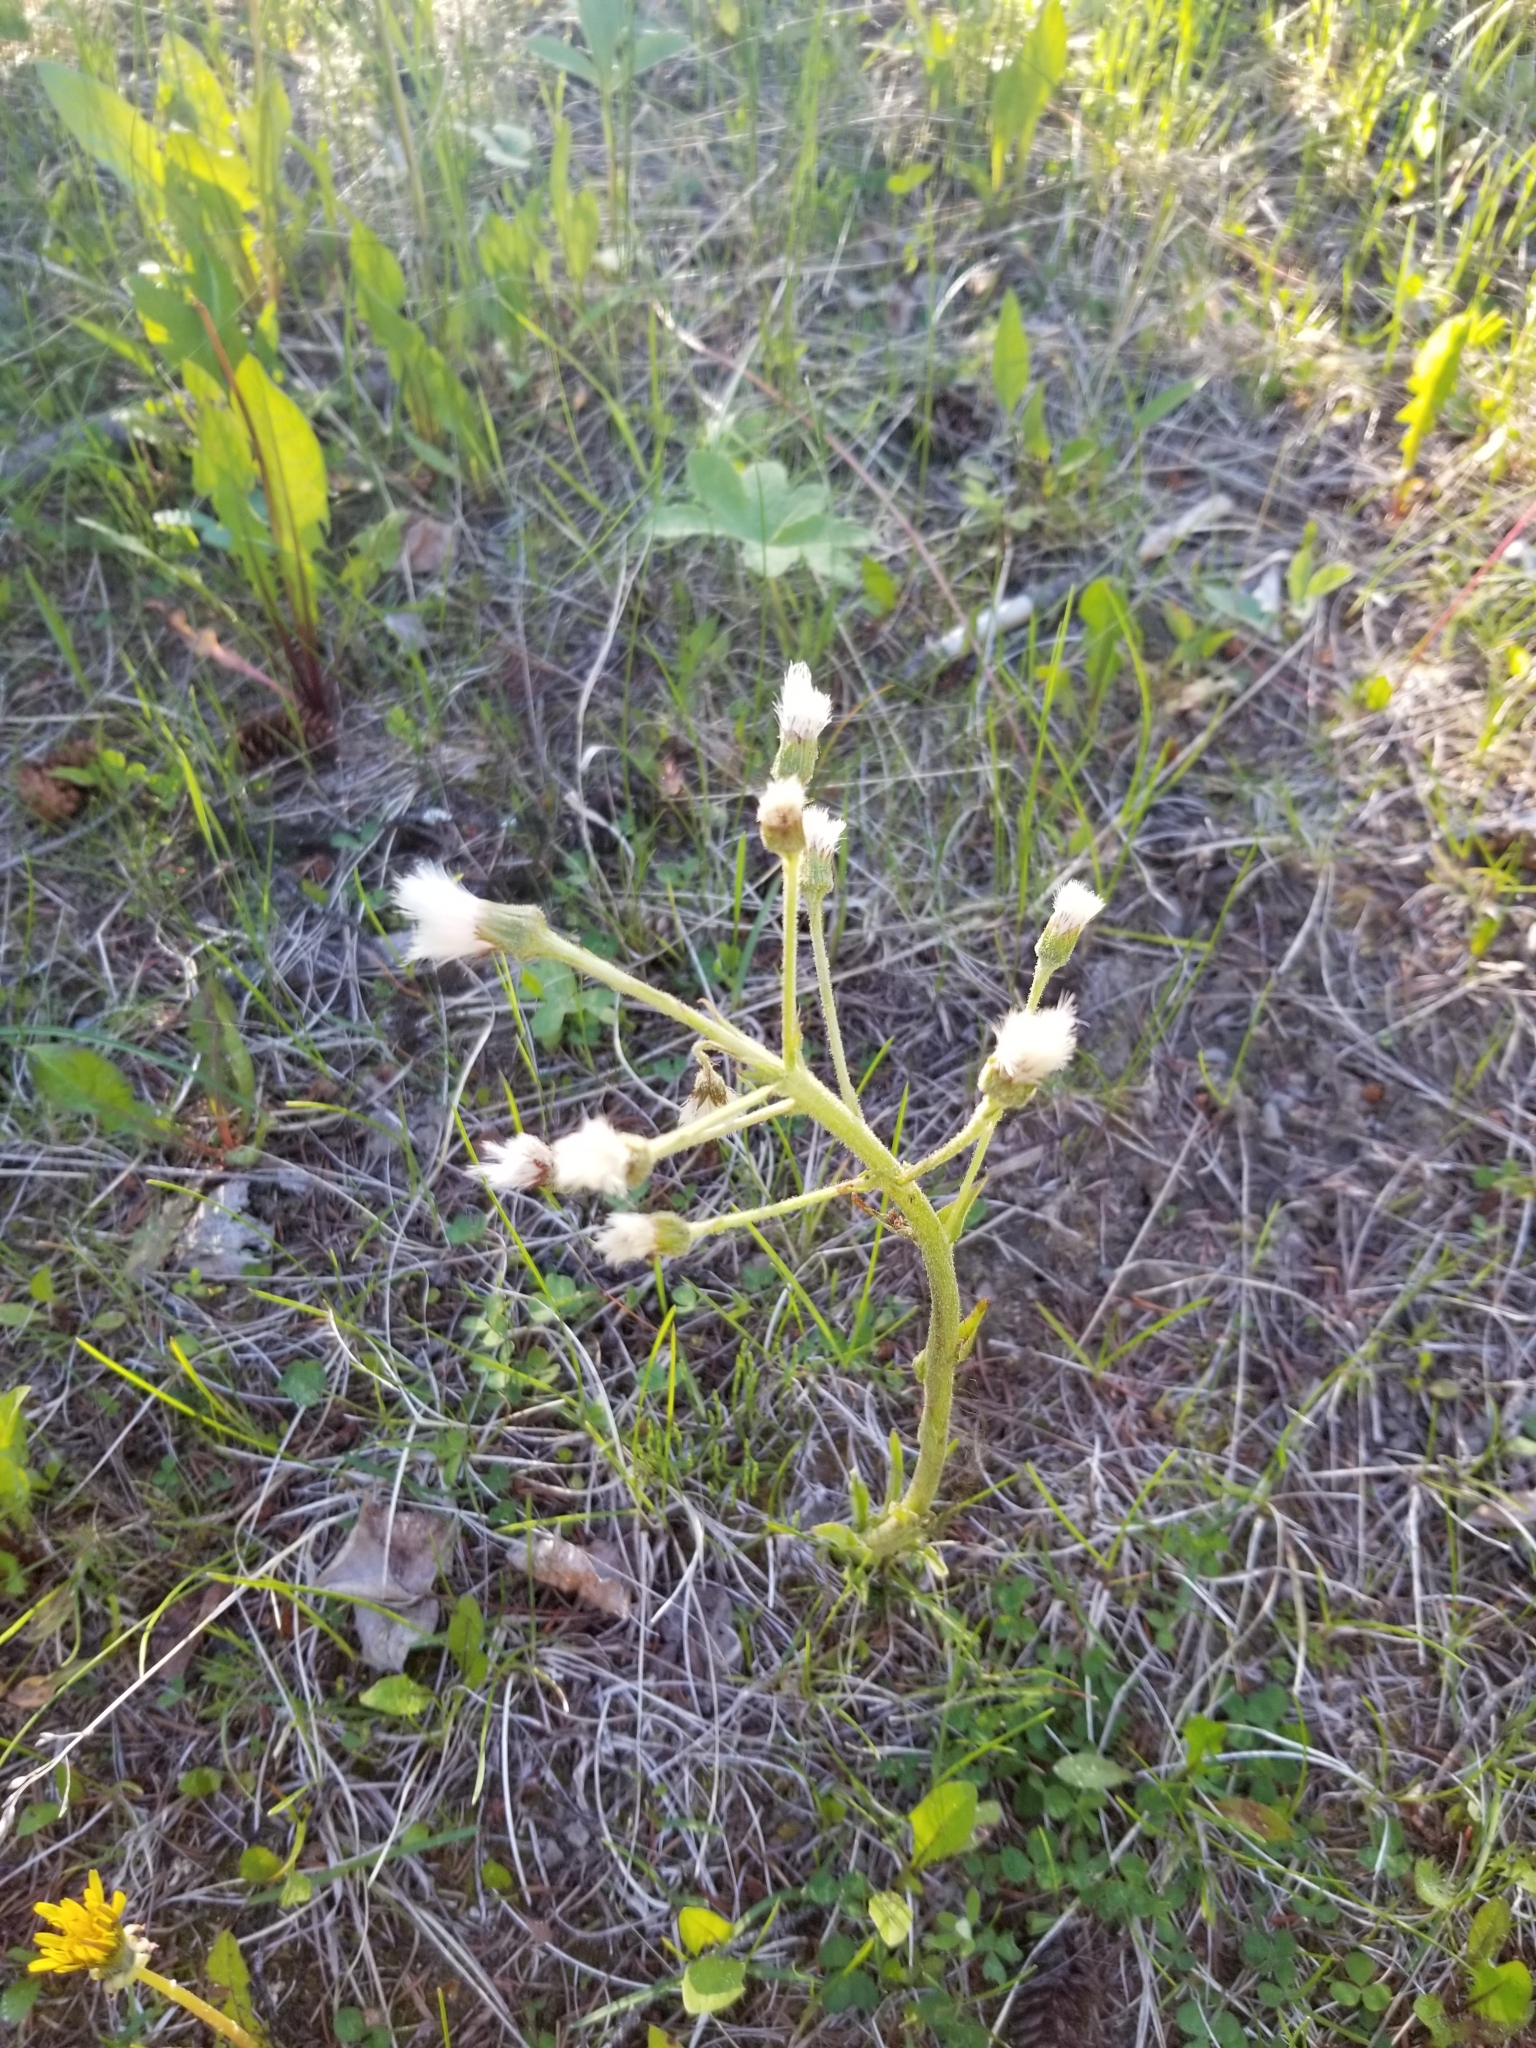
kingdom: Plantae
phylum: Tracheophyta
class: Magnoliopsida
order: Asterales
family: Asteraceae
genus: Petasites
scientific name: Petasites frigidus
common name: Arctic butterbur
